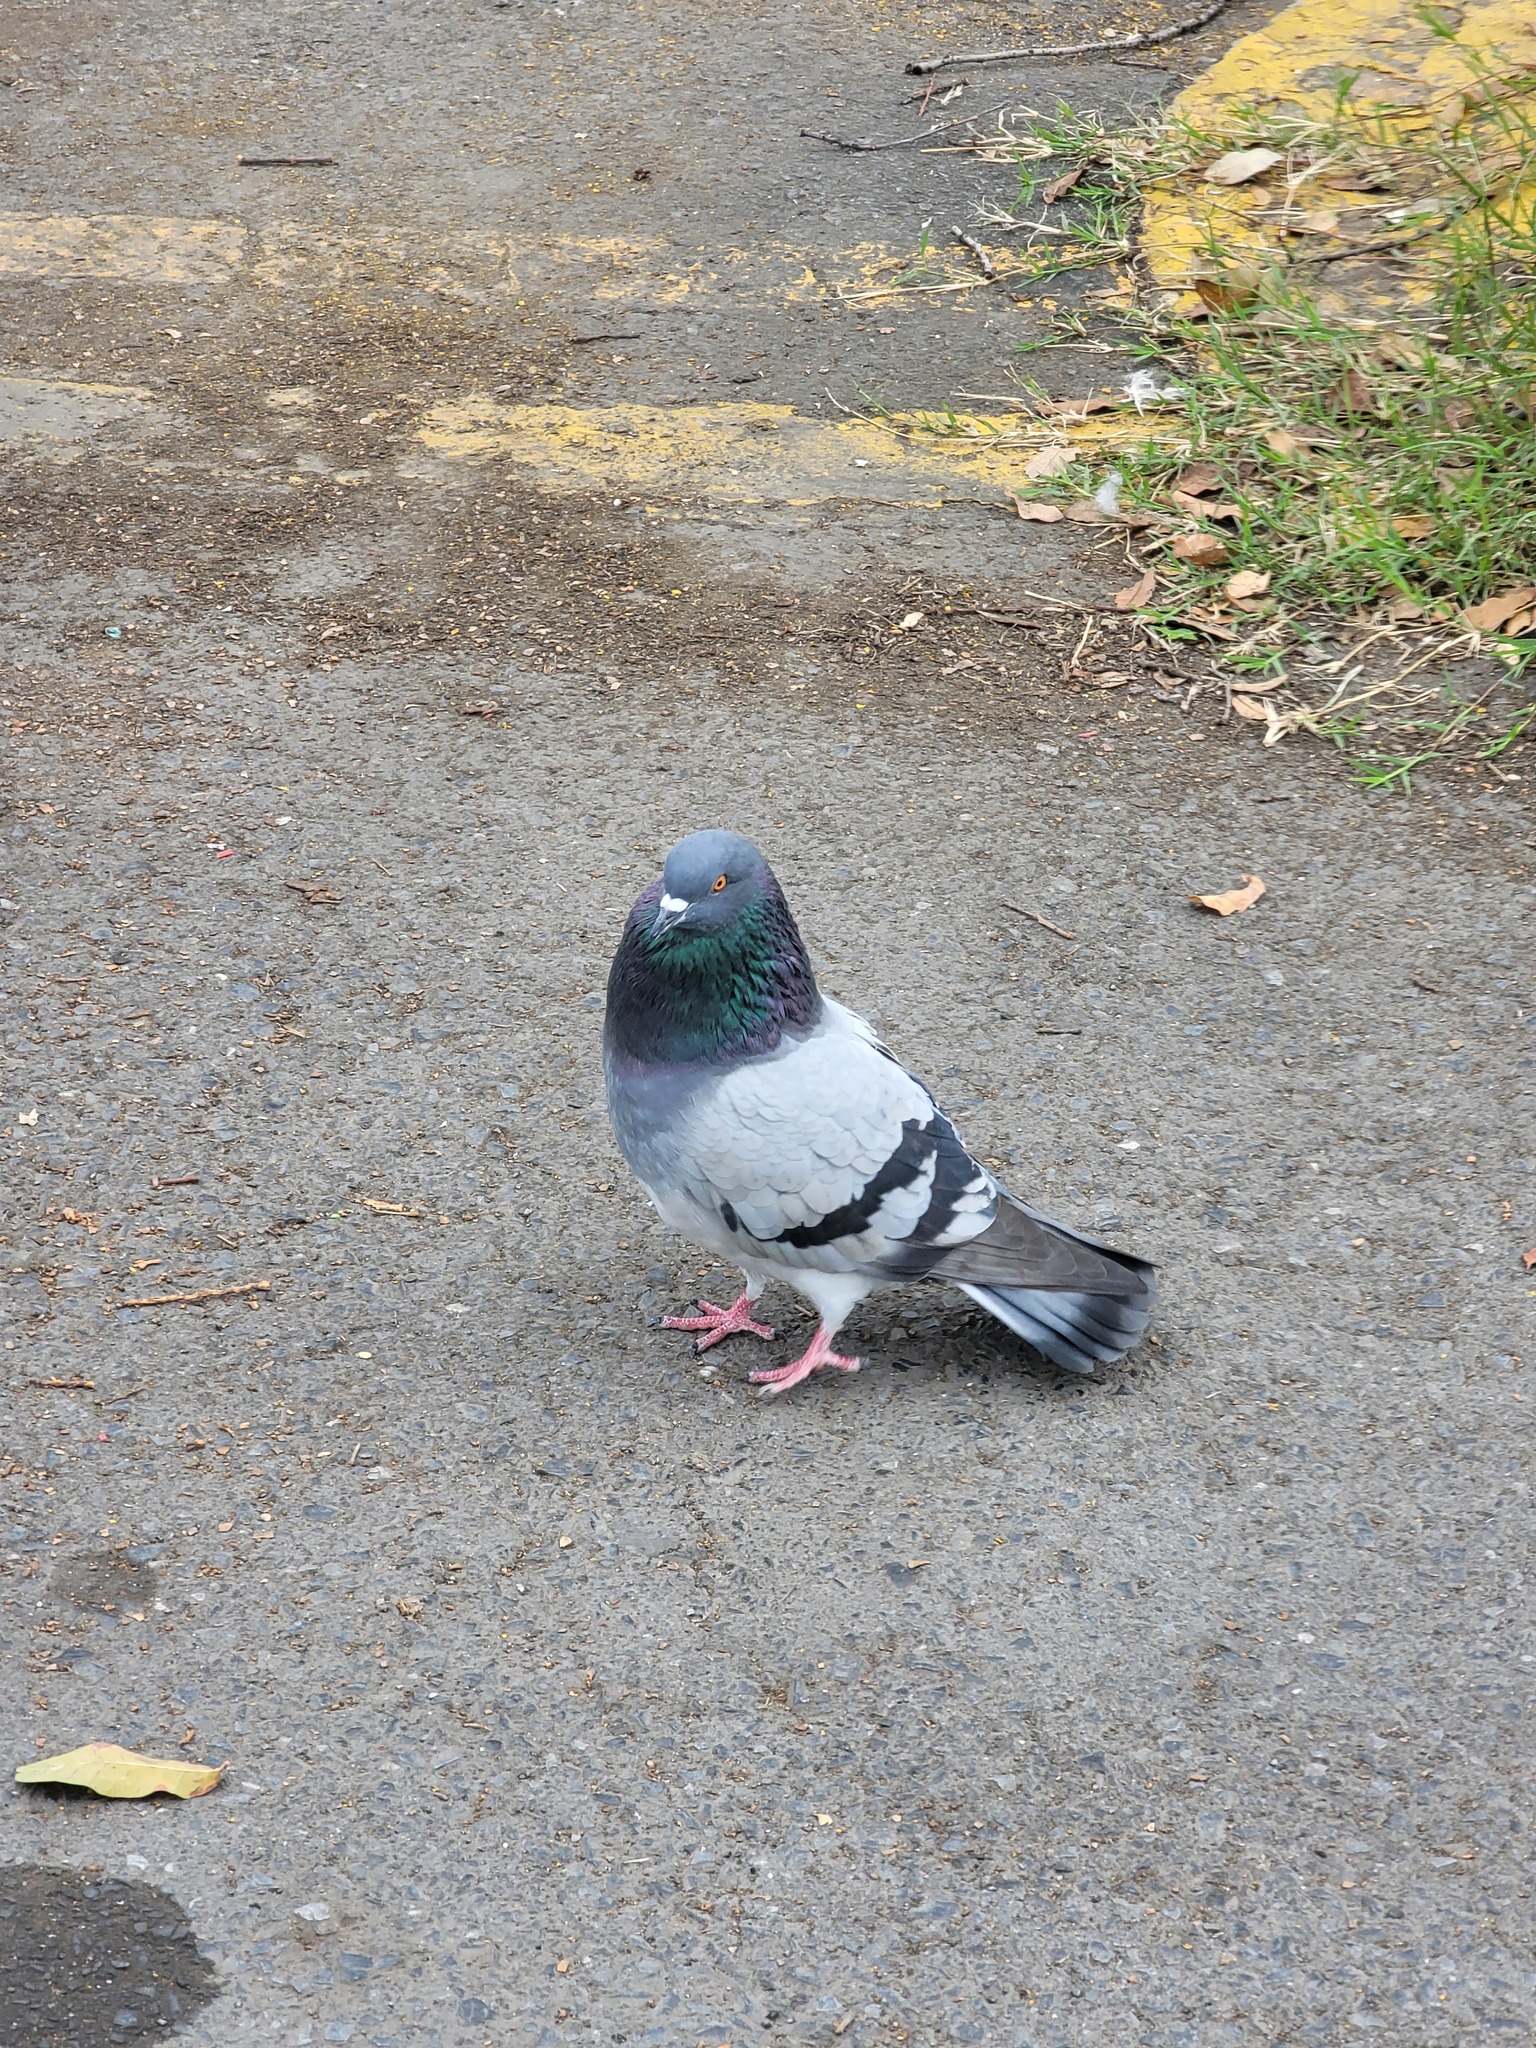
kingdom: Animalia
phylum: Chordata
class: Aves
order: Columbiformes
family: Columbidae
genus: Columba
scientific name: Columba livia
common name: Rock pigeon
